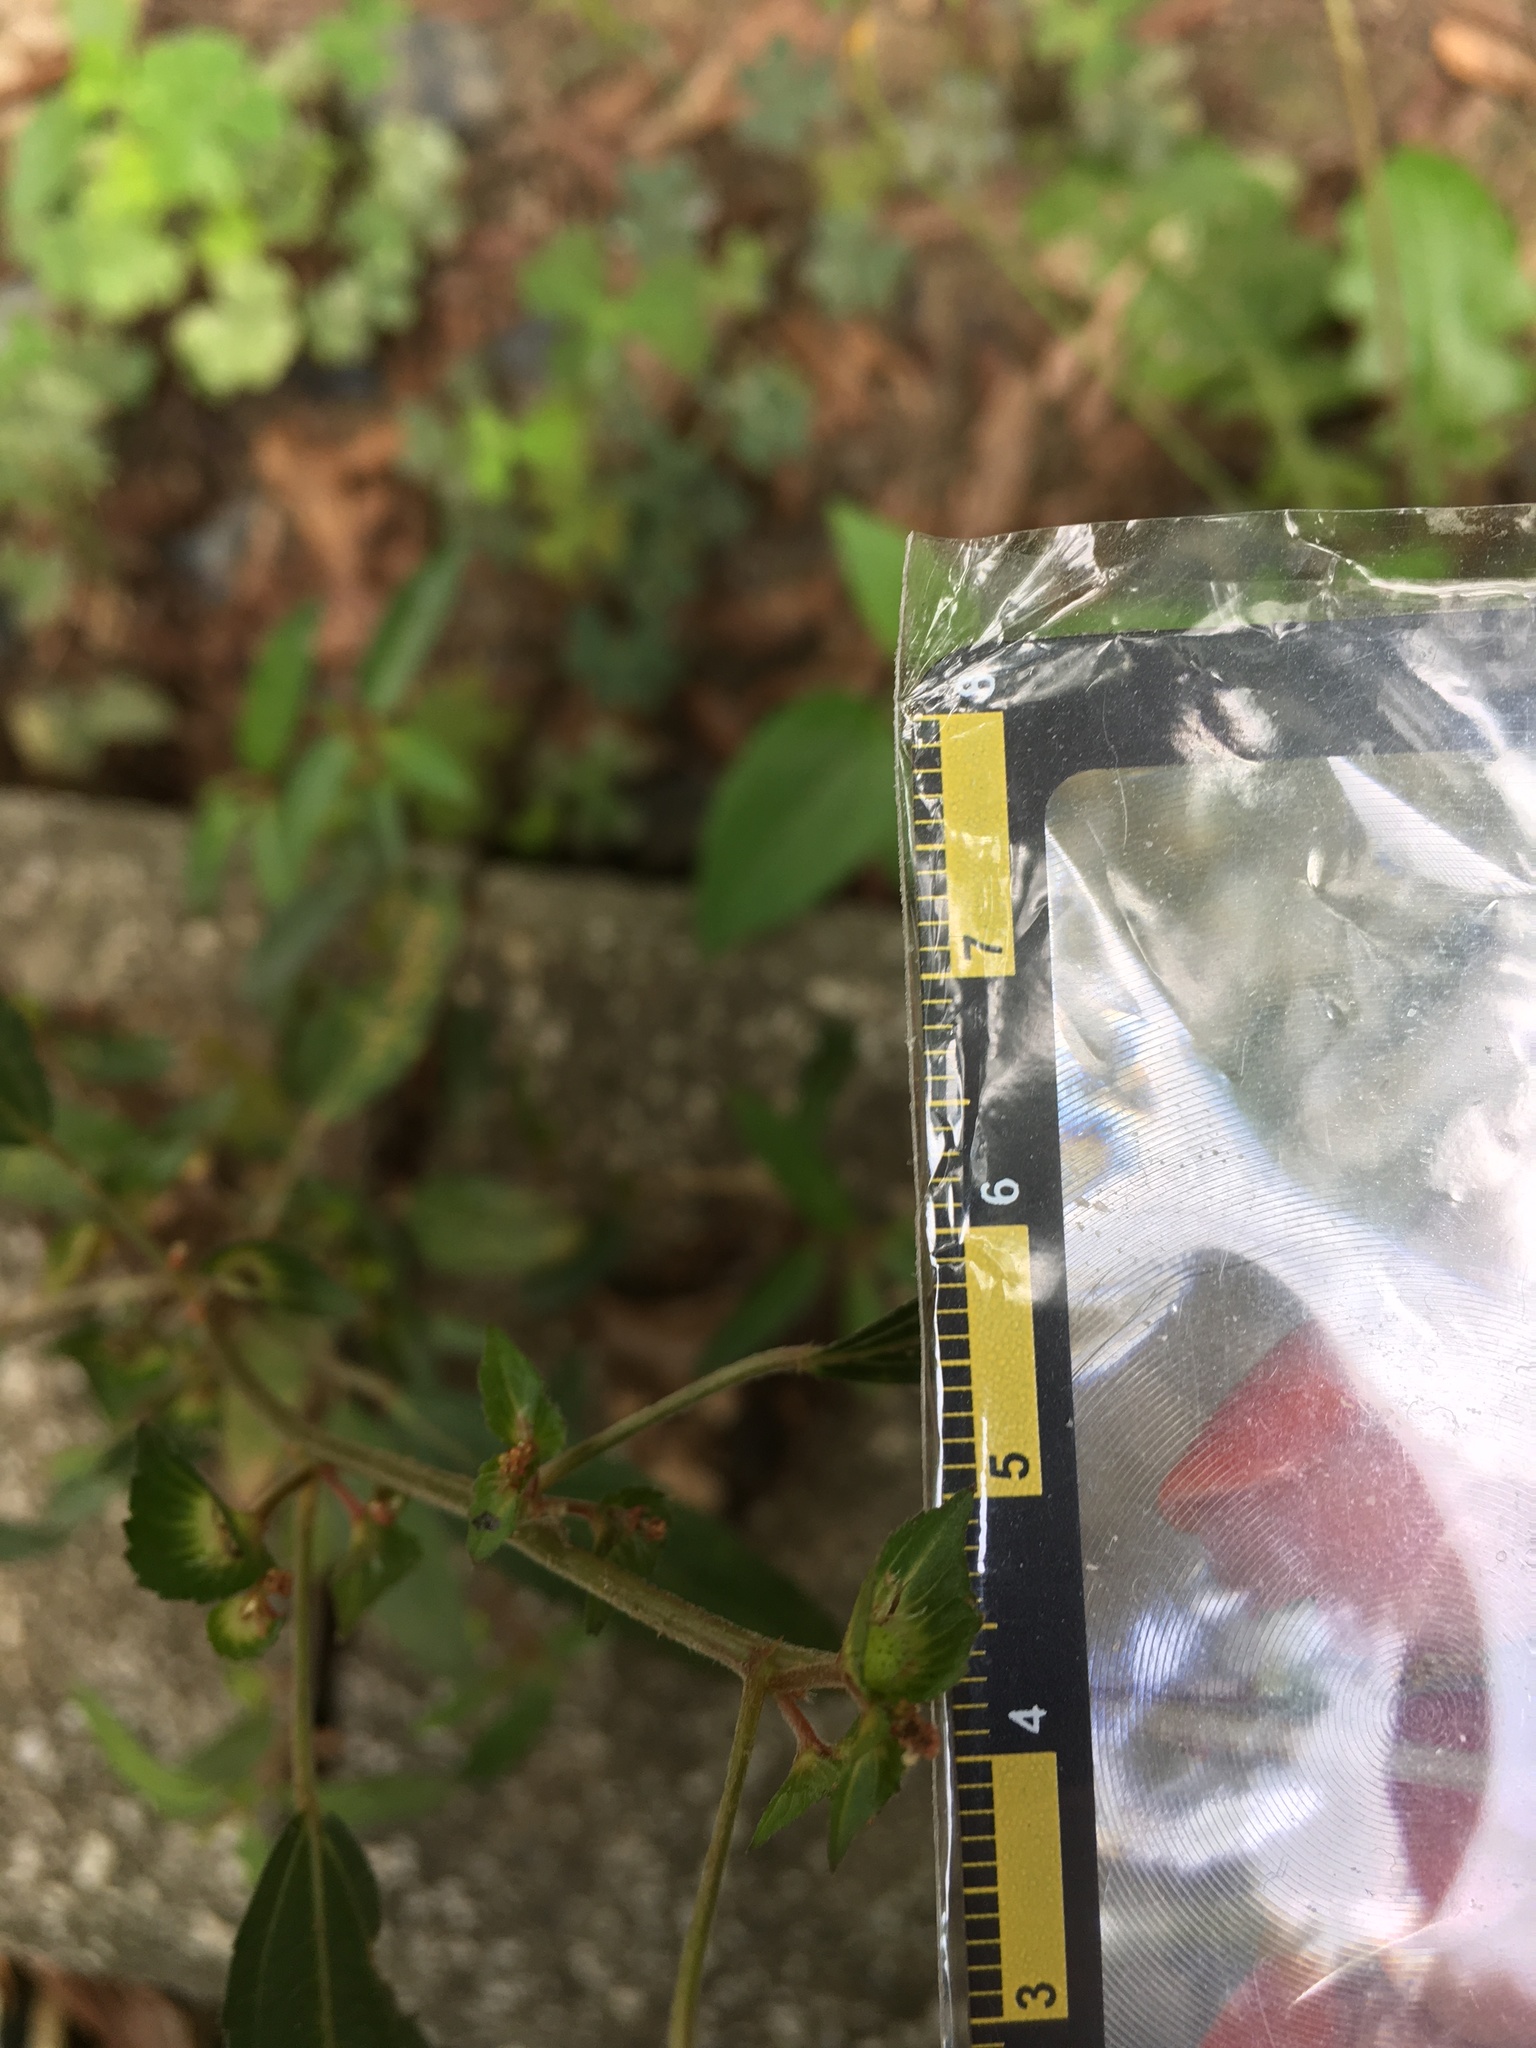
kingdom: Plantae
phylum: Tracheophyta
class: Magnoliopsida
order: Malpighiales
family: Euphorbiaceae
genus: Acalypha
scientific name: Acalypha australis
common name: Asian copperleaf
